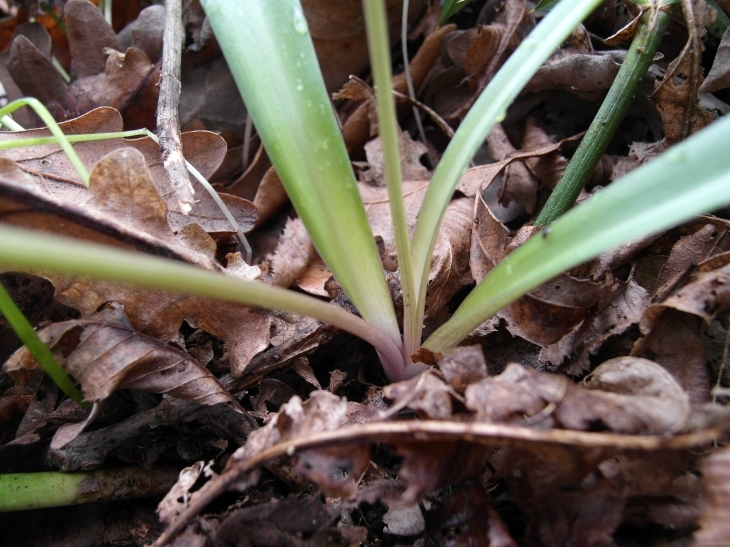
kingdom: Plantae
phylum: Tracheophyta
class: Liliopsida
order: Asparagales
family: Asparagaceae
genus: Scilla
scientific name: Scilla bithynica
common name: Turkish squill
